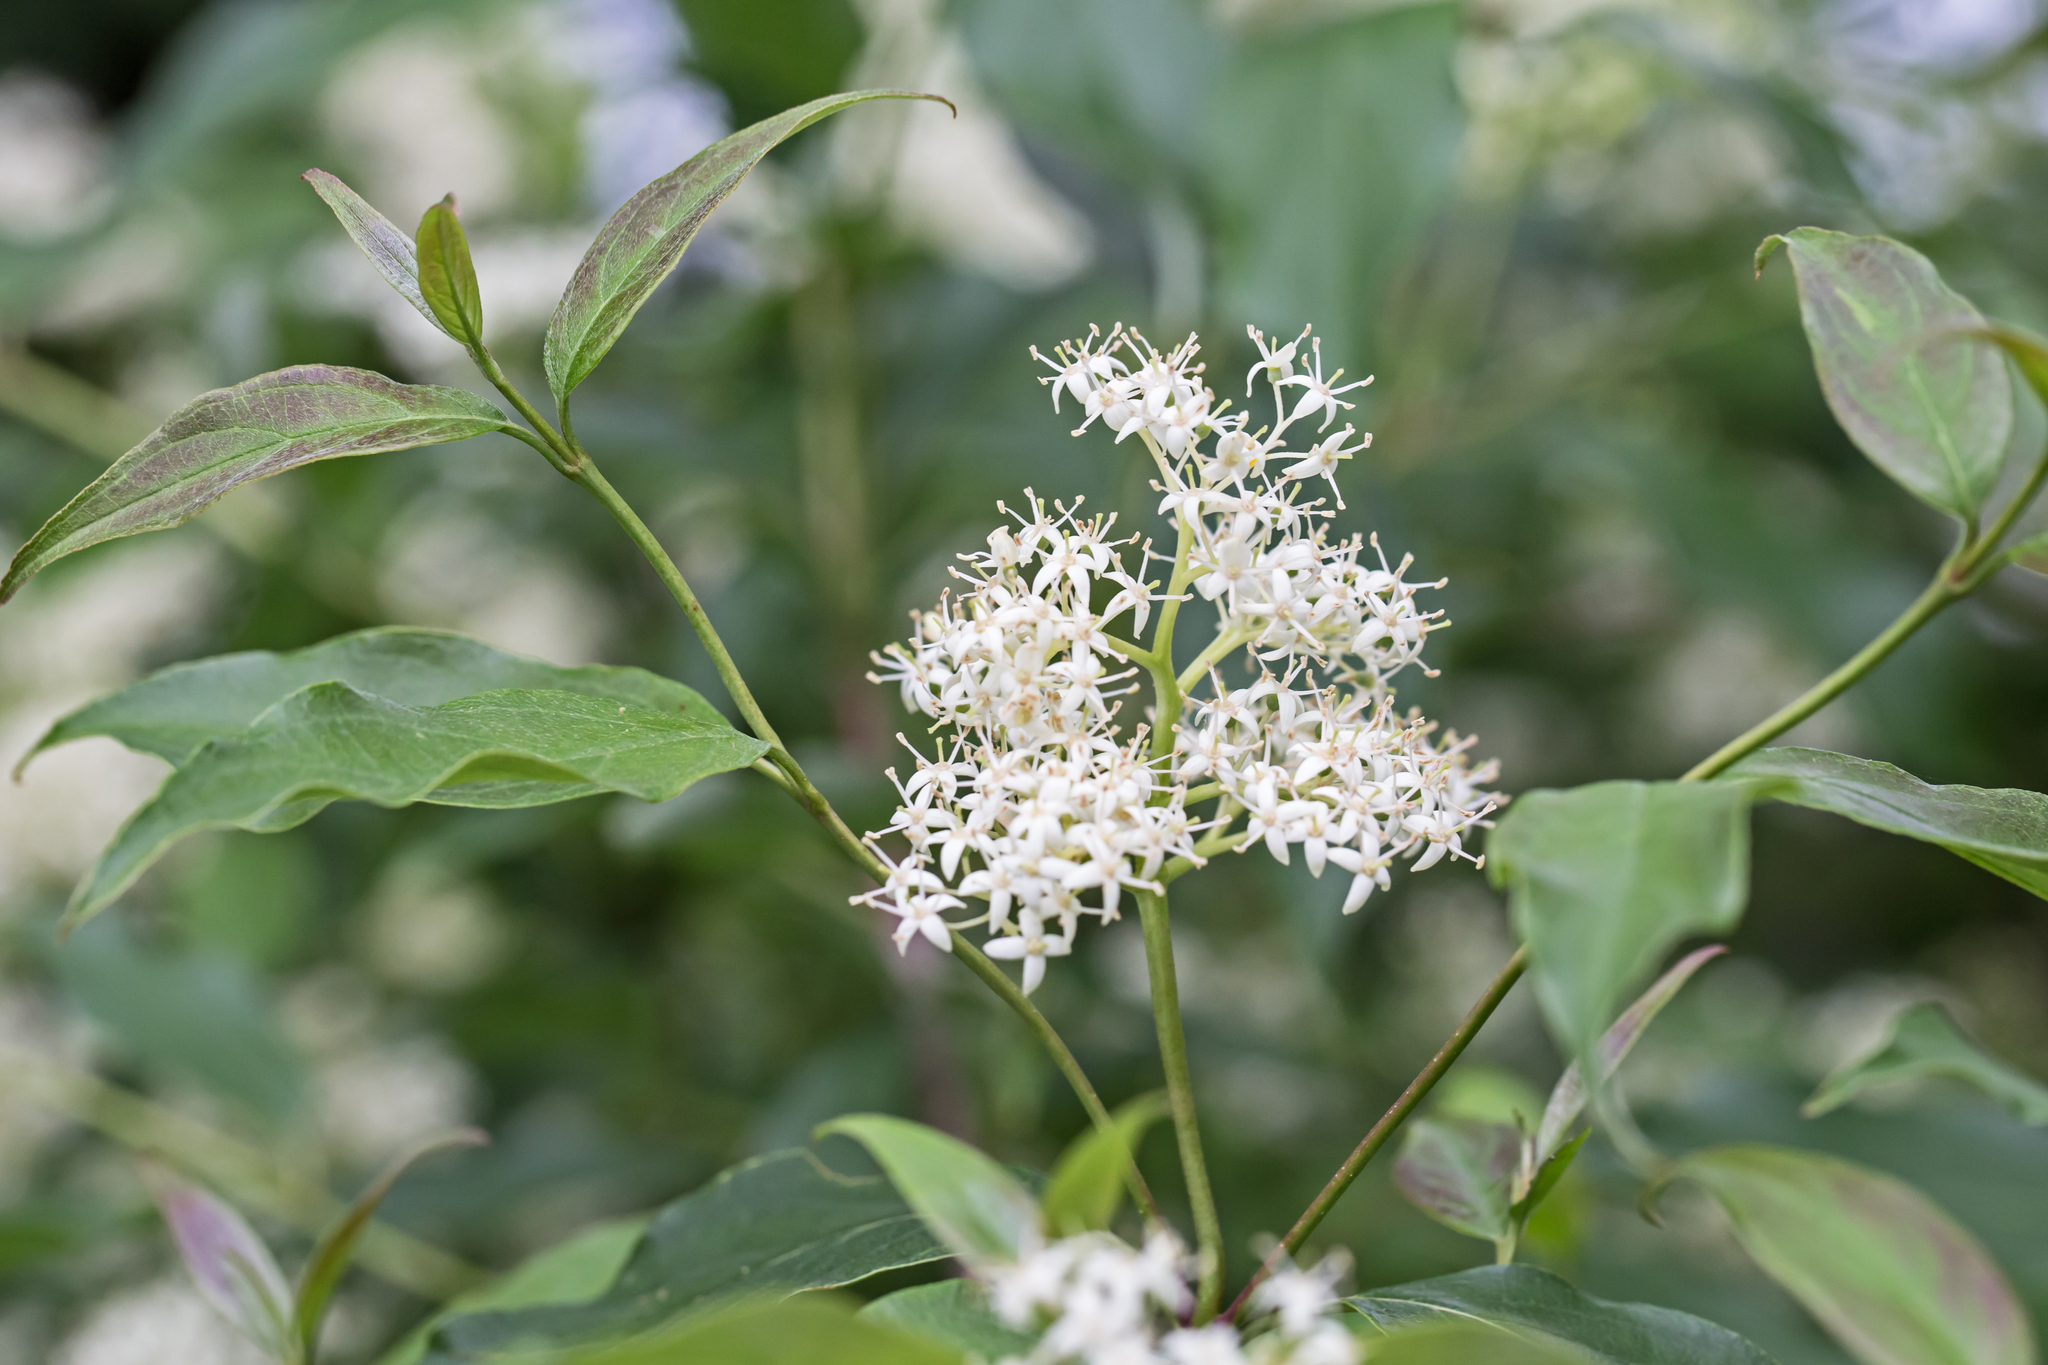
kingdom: Plantae
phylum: Tracheophyta
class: Magnoliopsida
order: Cornales
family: Cornaceae
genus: Cornus
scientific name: Cornus racemosa
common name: Panicled dogwood
